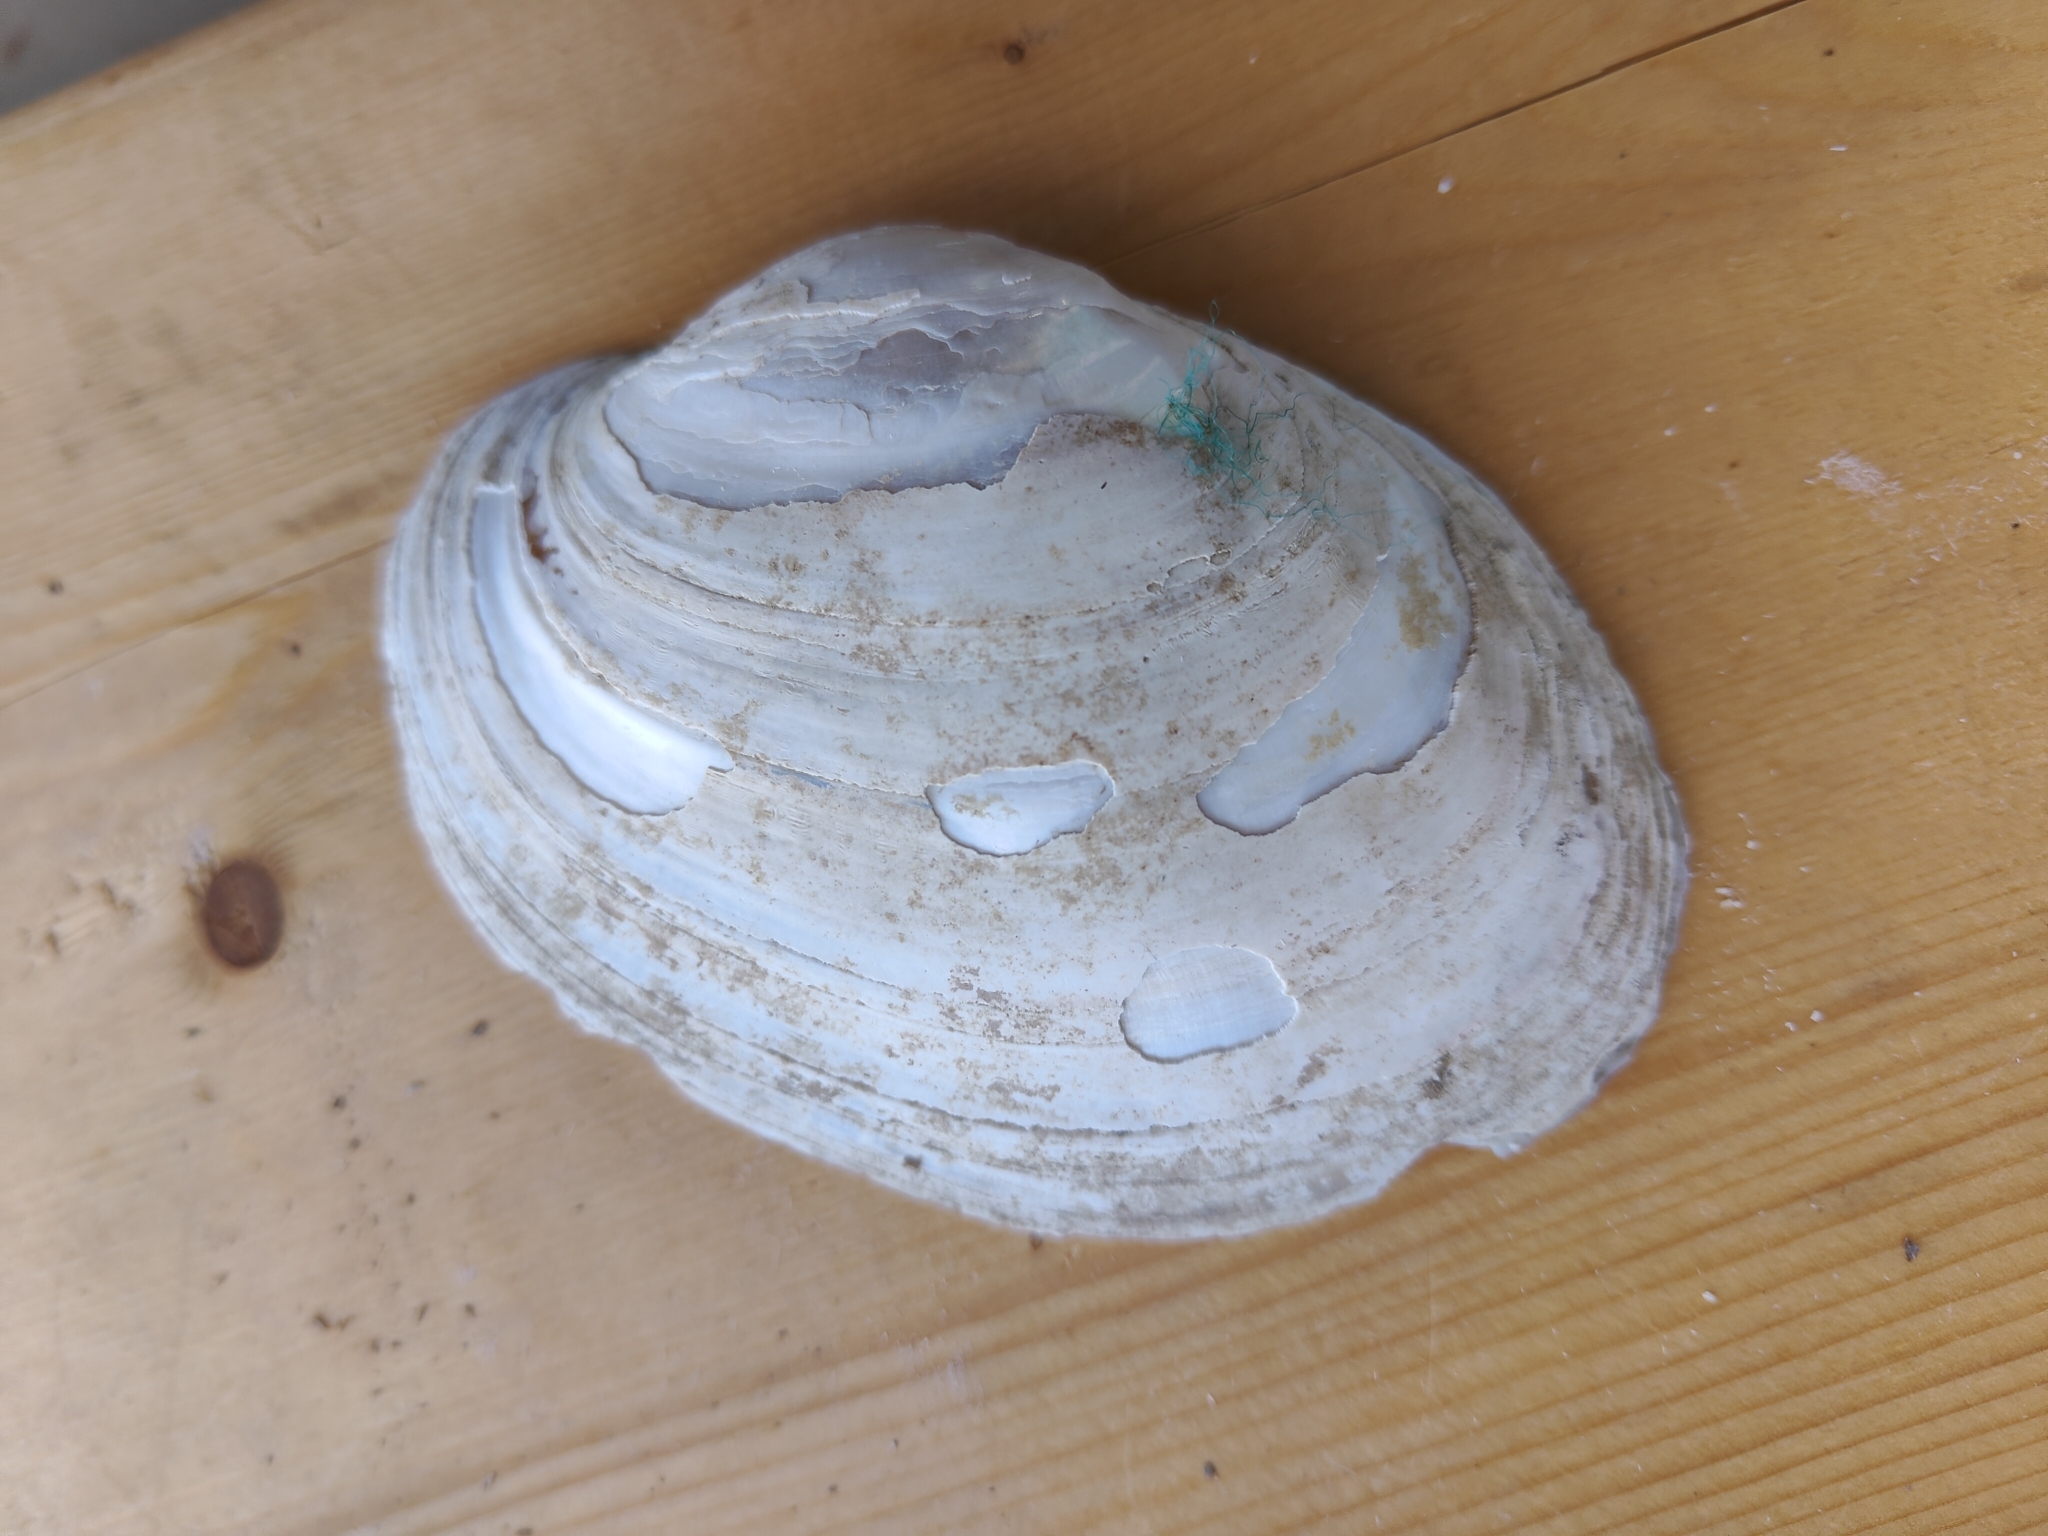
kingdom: Animalia
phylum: Mollusca
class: Bivalvia
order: Unionida
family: Unionidae
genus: Lampsilis
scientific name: Lampsilis cardium
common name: Plain pocketbook
